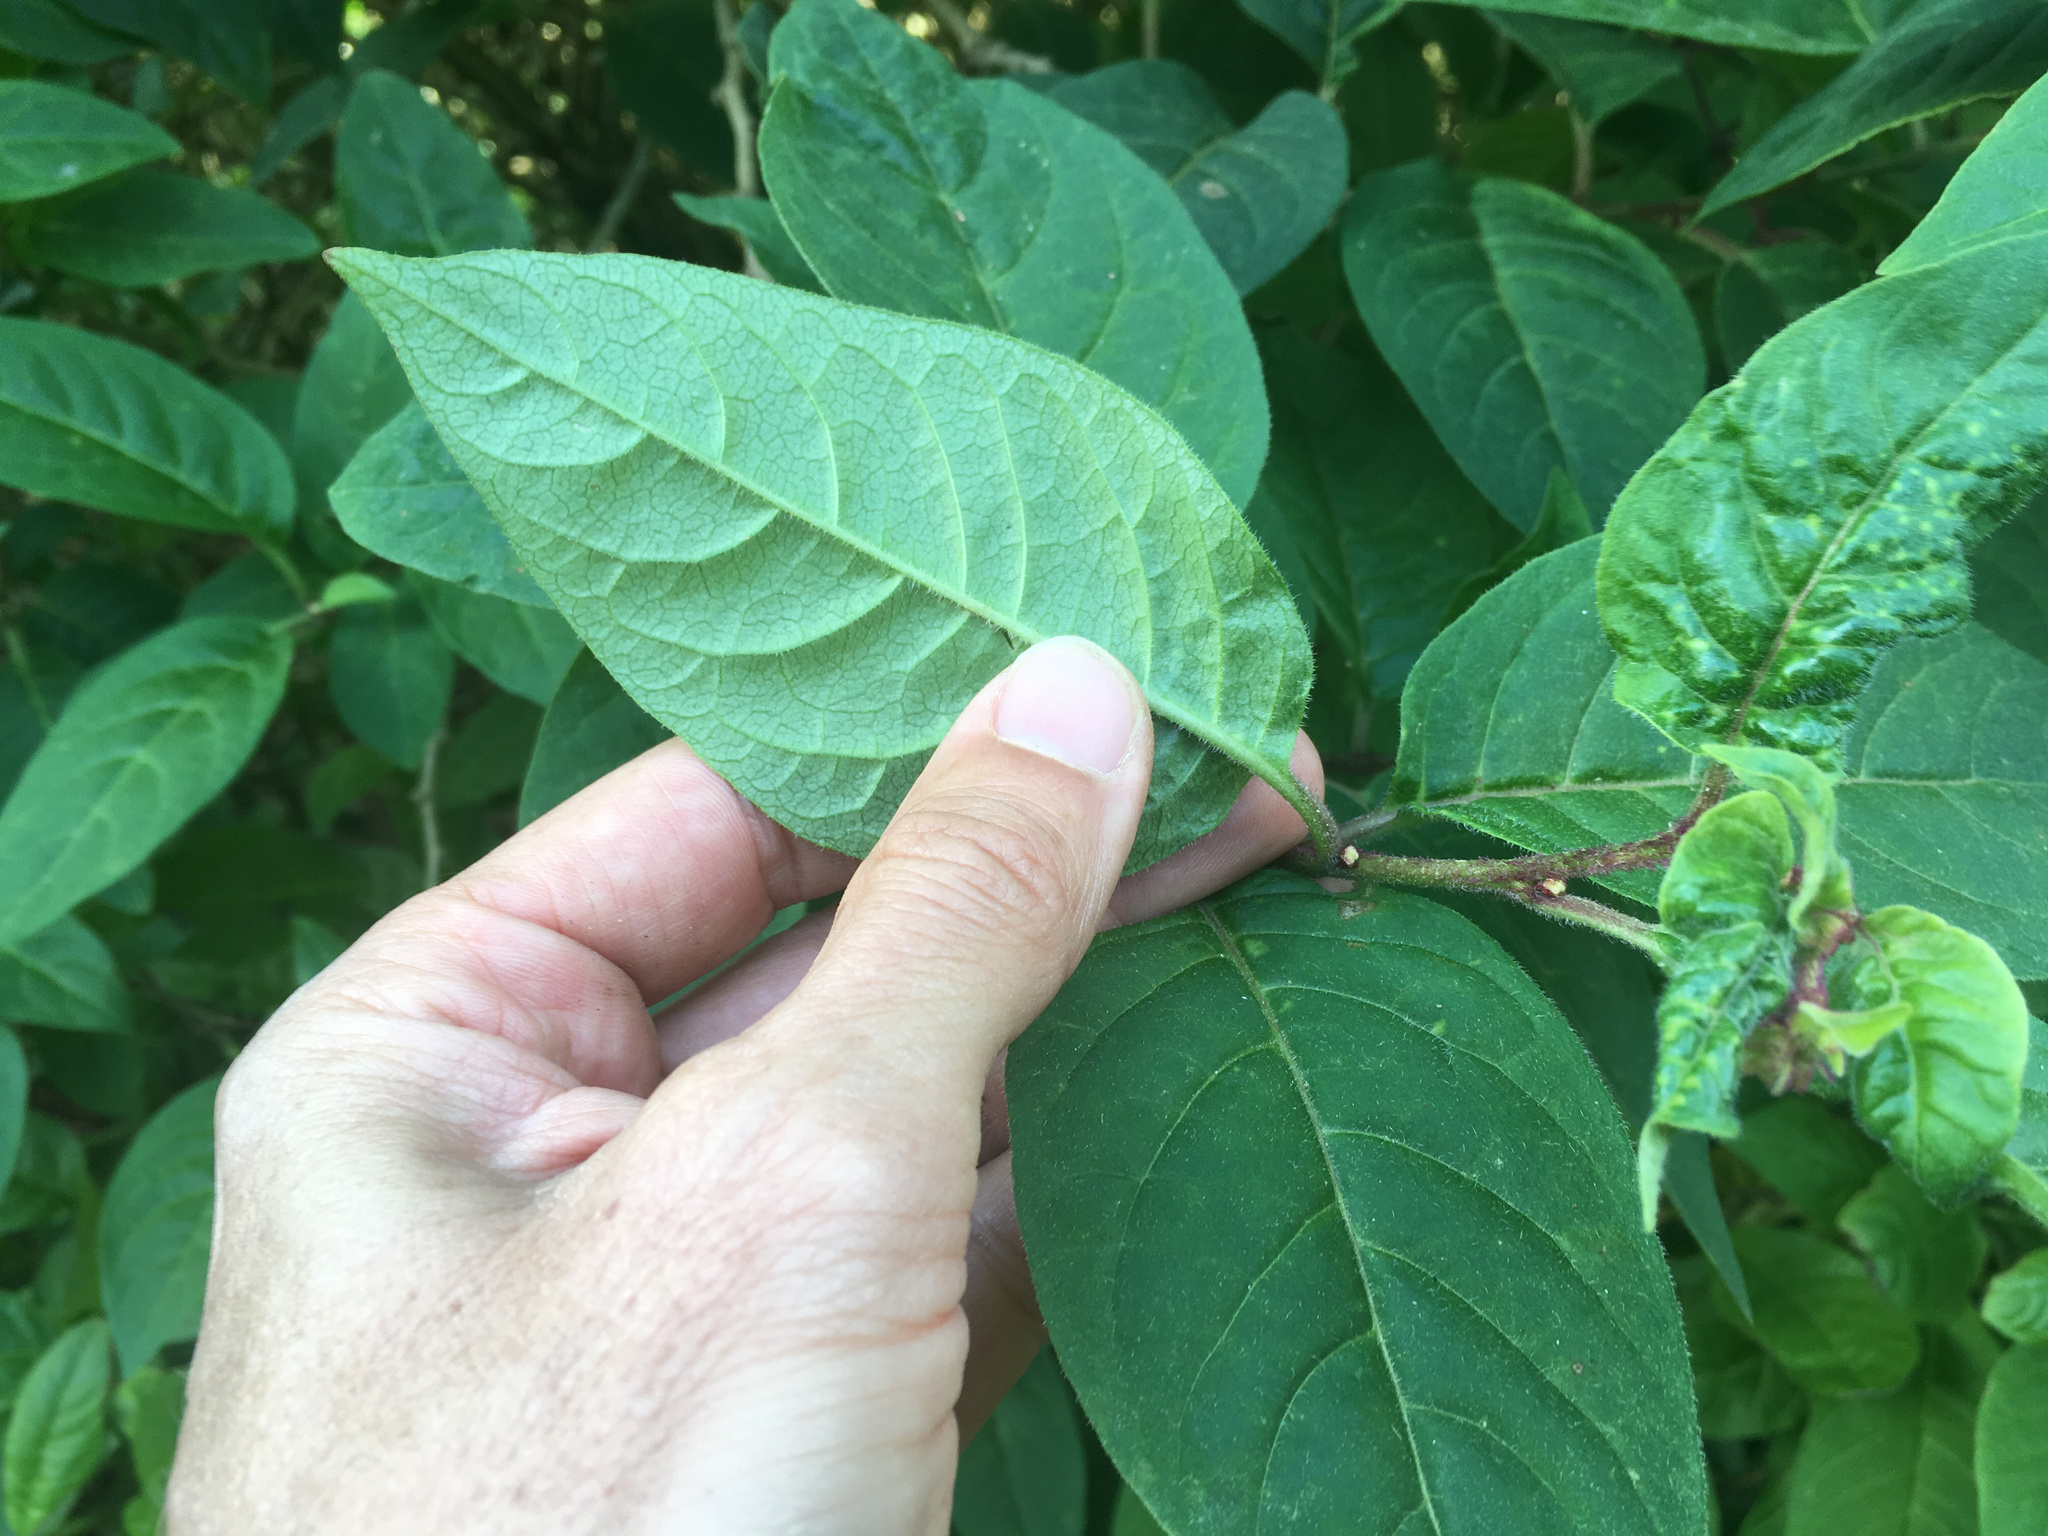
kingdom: Plantae
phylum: Tracheophyta
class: Magnoliopsida
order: Solanales
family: Solanaceae
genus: Cestrum
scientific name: Cestrum fasciculatum
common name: Early jessamine
